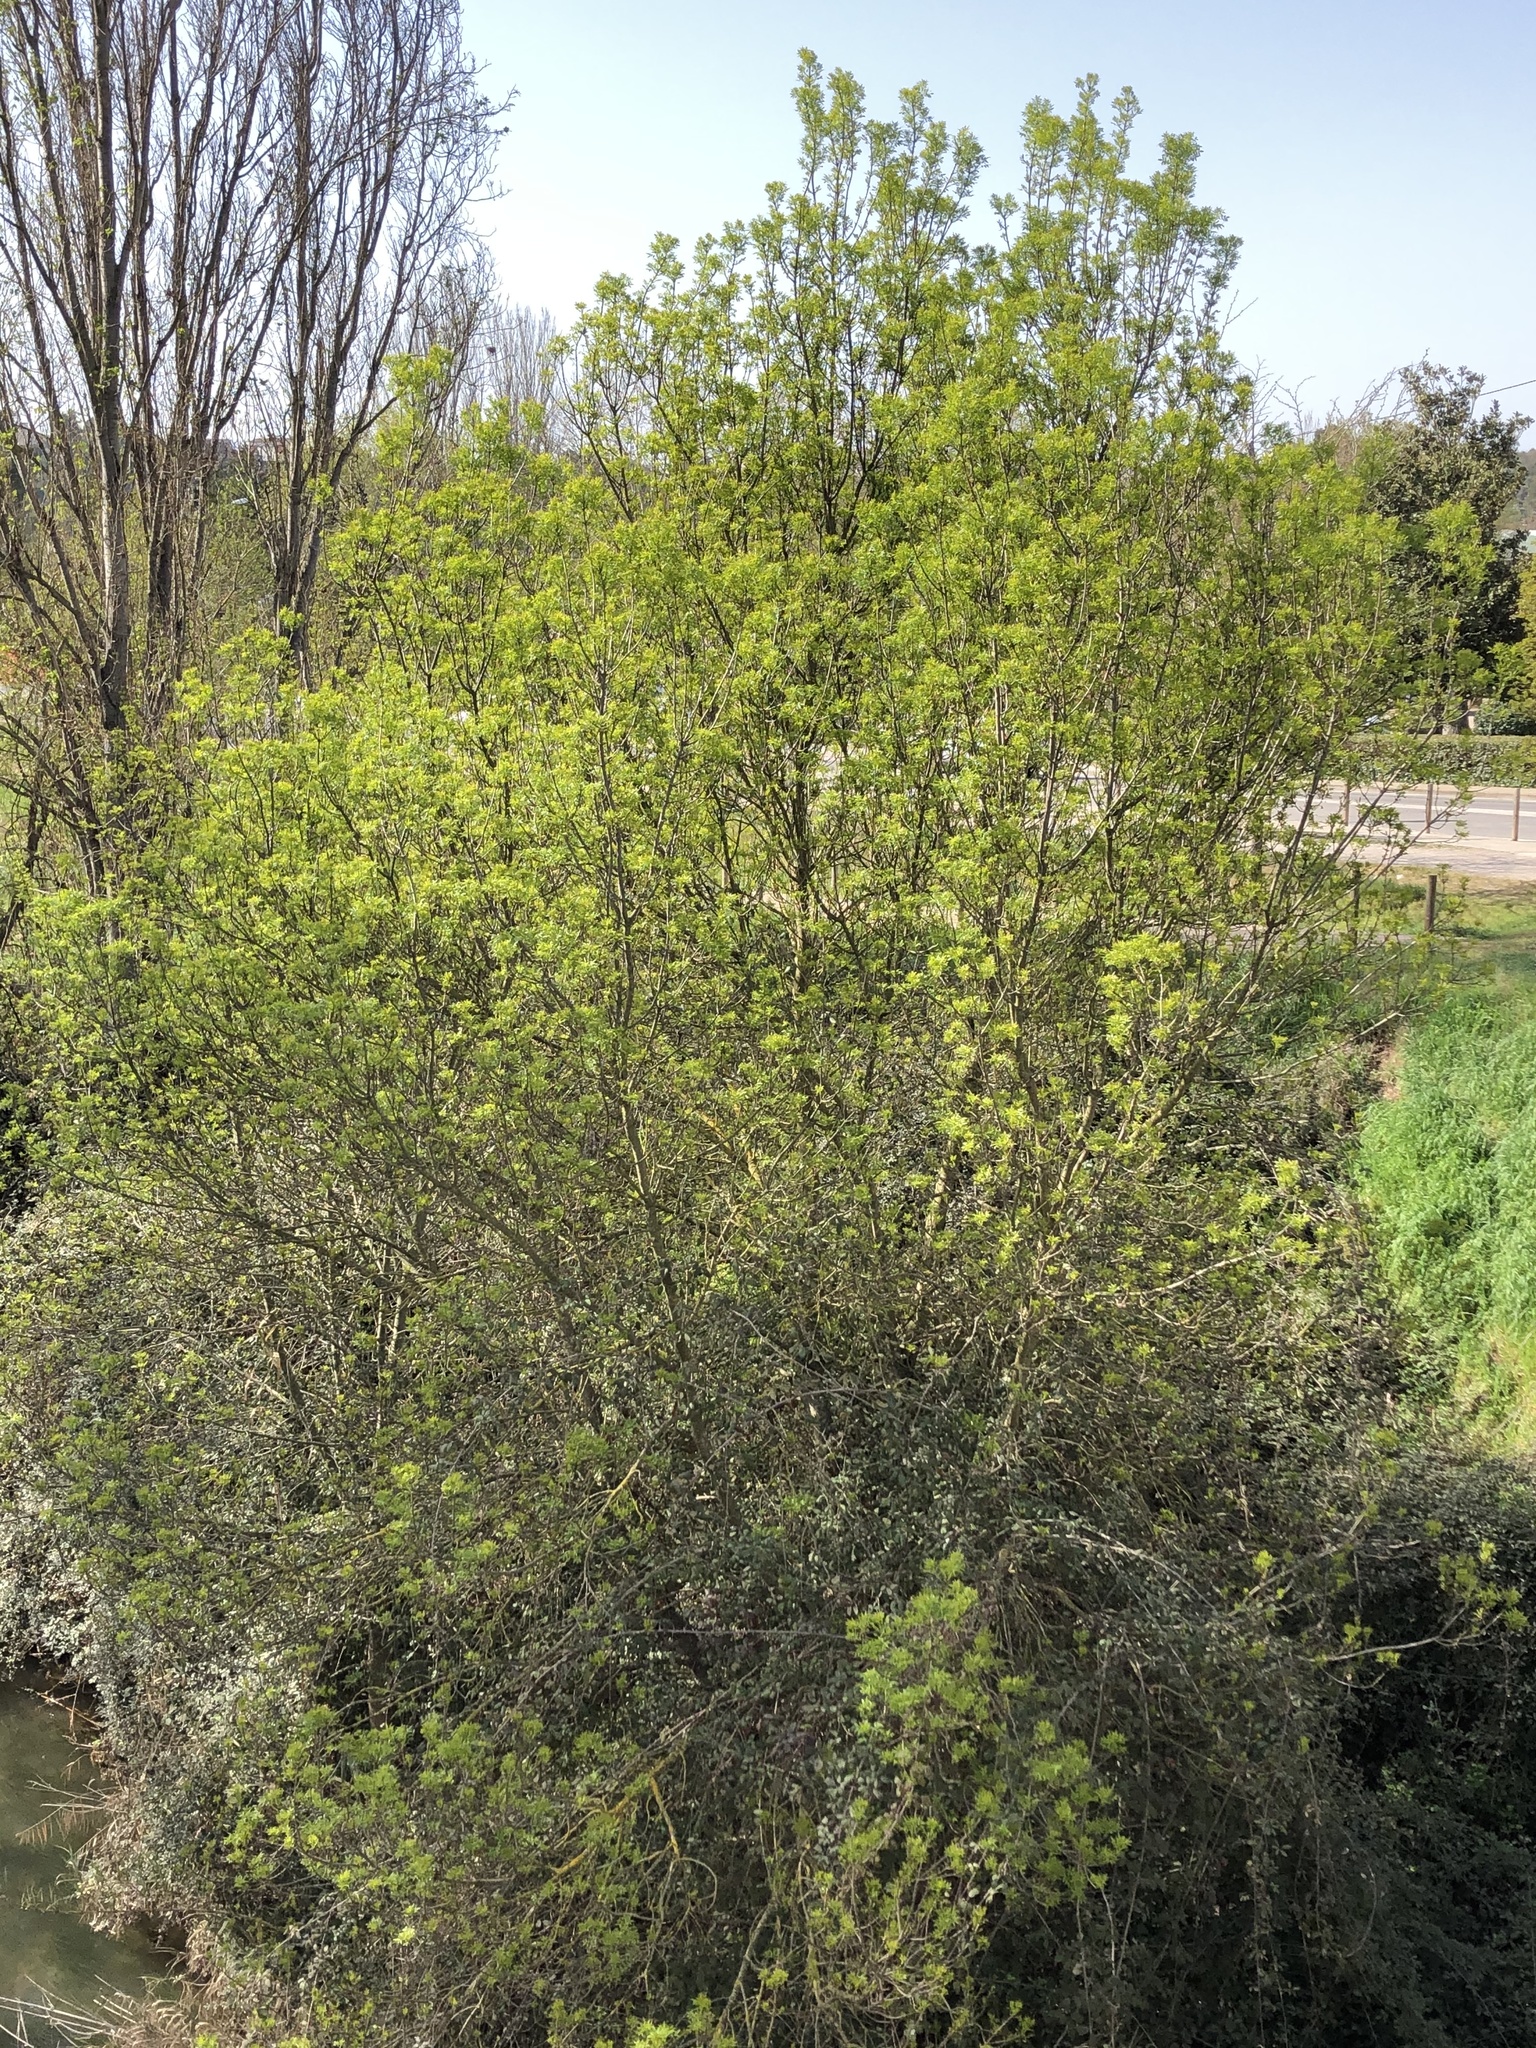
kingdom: Plantae
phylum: Tracheophyta
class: Magnoliopsida
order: Lamiales
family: Oleaceae
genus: Fraxinus
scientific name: Fraxinus angustifolia
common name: Narrow-leafed ash
